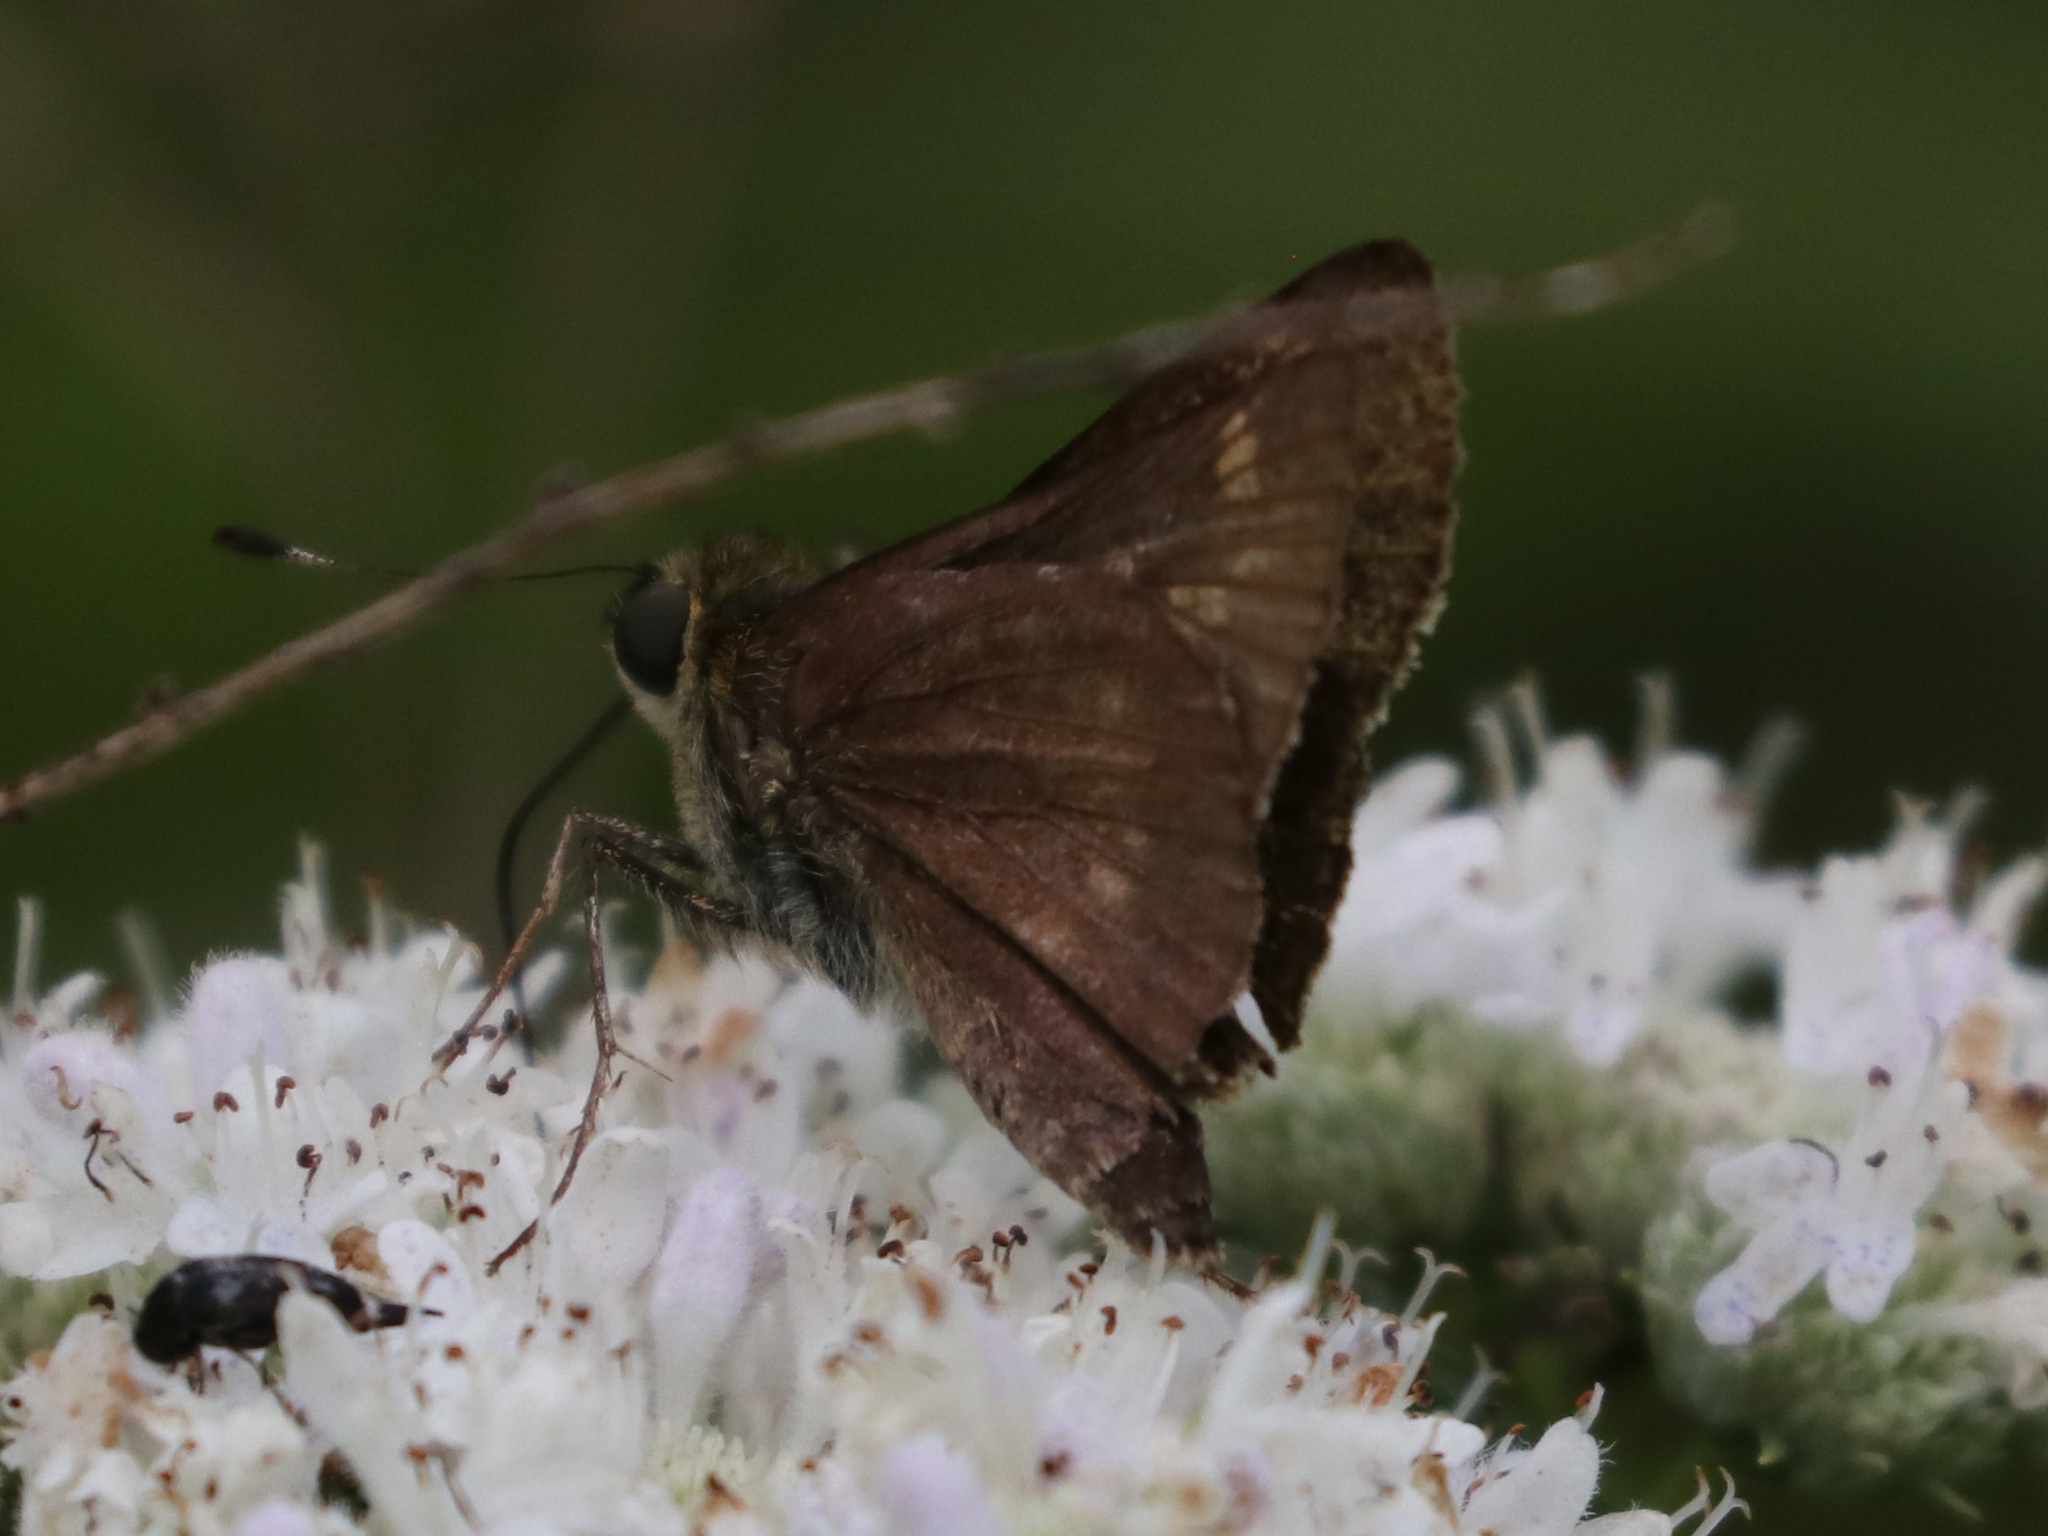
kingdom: Animalia
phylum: Arthropoda
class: Insecta
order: Lepidoptera
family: Hesperiidae
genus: Vernia
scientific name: Vernia verna
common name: Little glassywing
